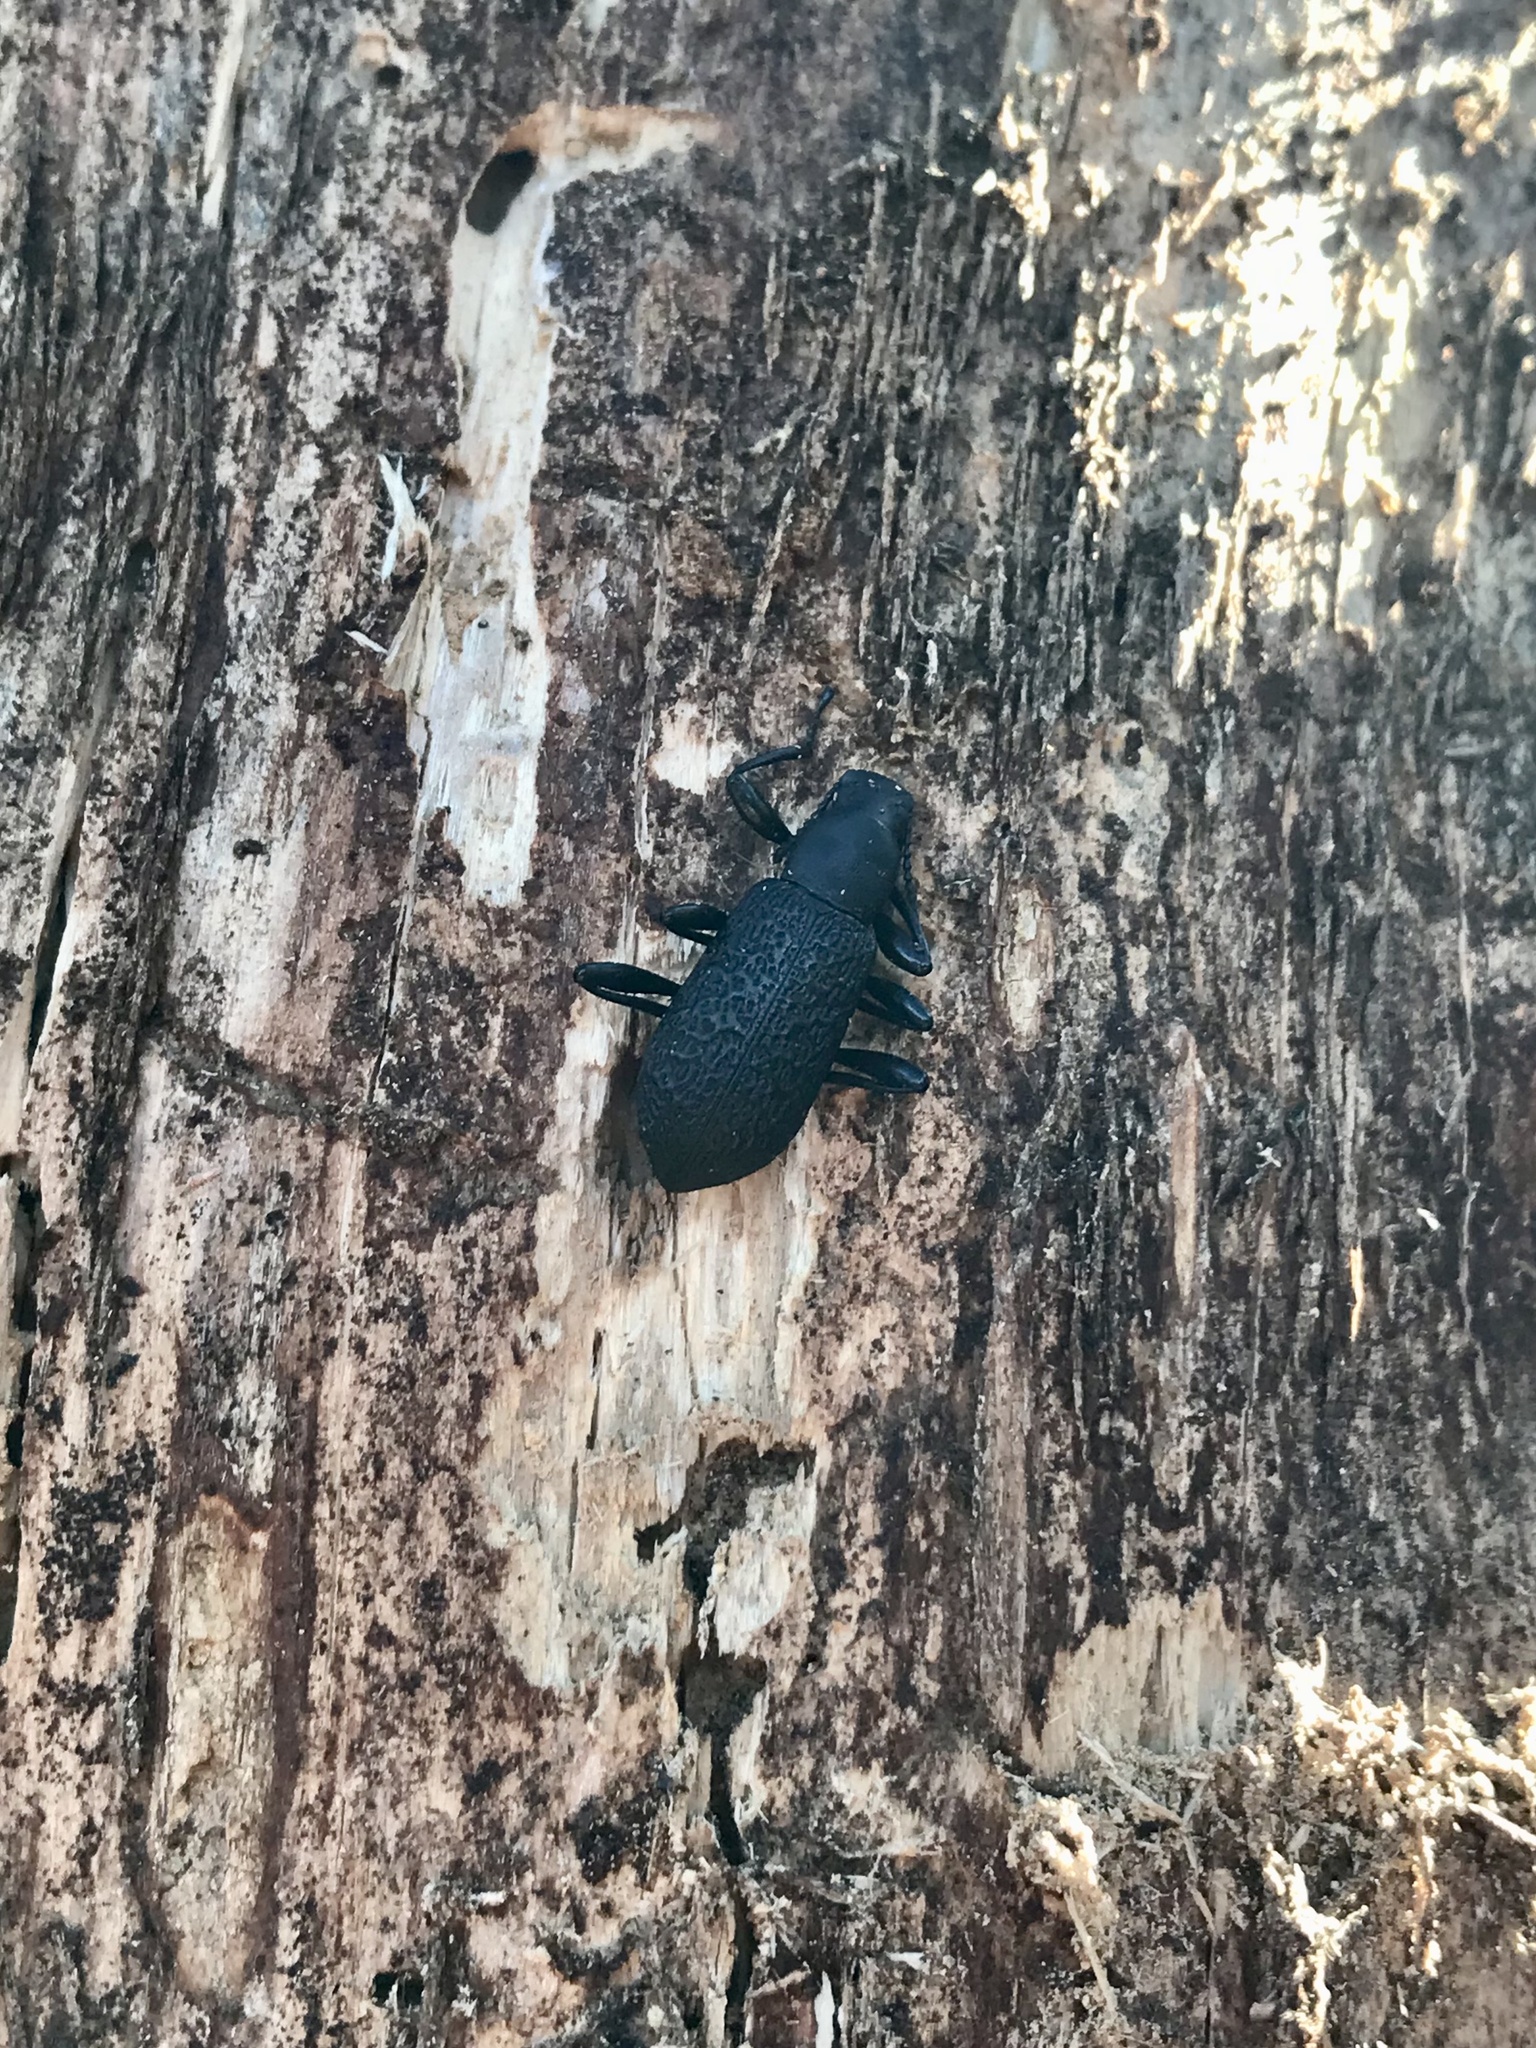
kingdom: Animalia
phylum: Arthropoda
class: Insecta
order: Coleoptera
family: Tenebrionidae
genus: Upis
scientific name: Upis ceramboides
